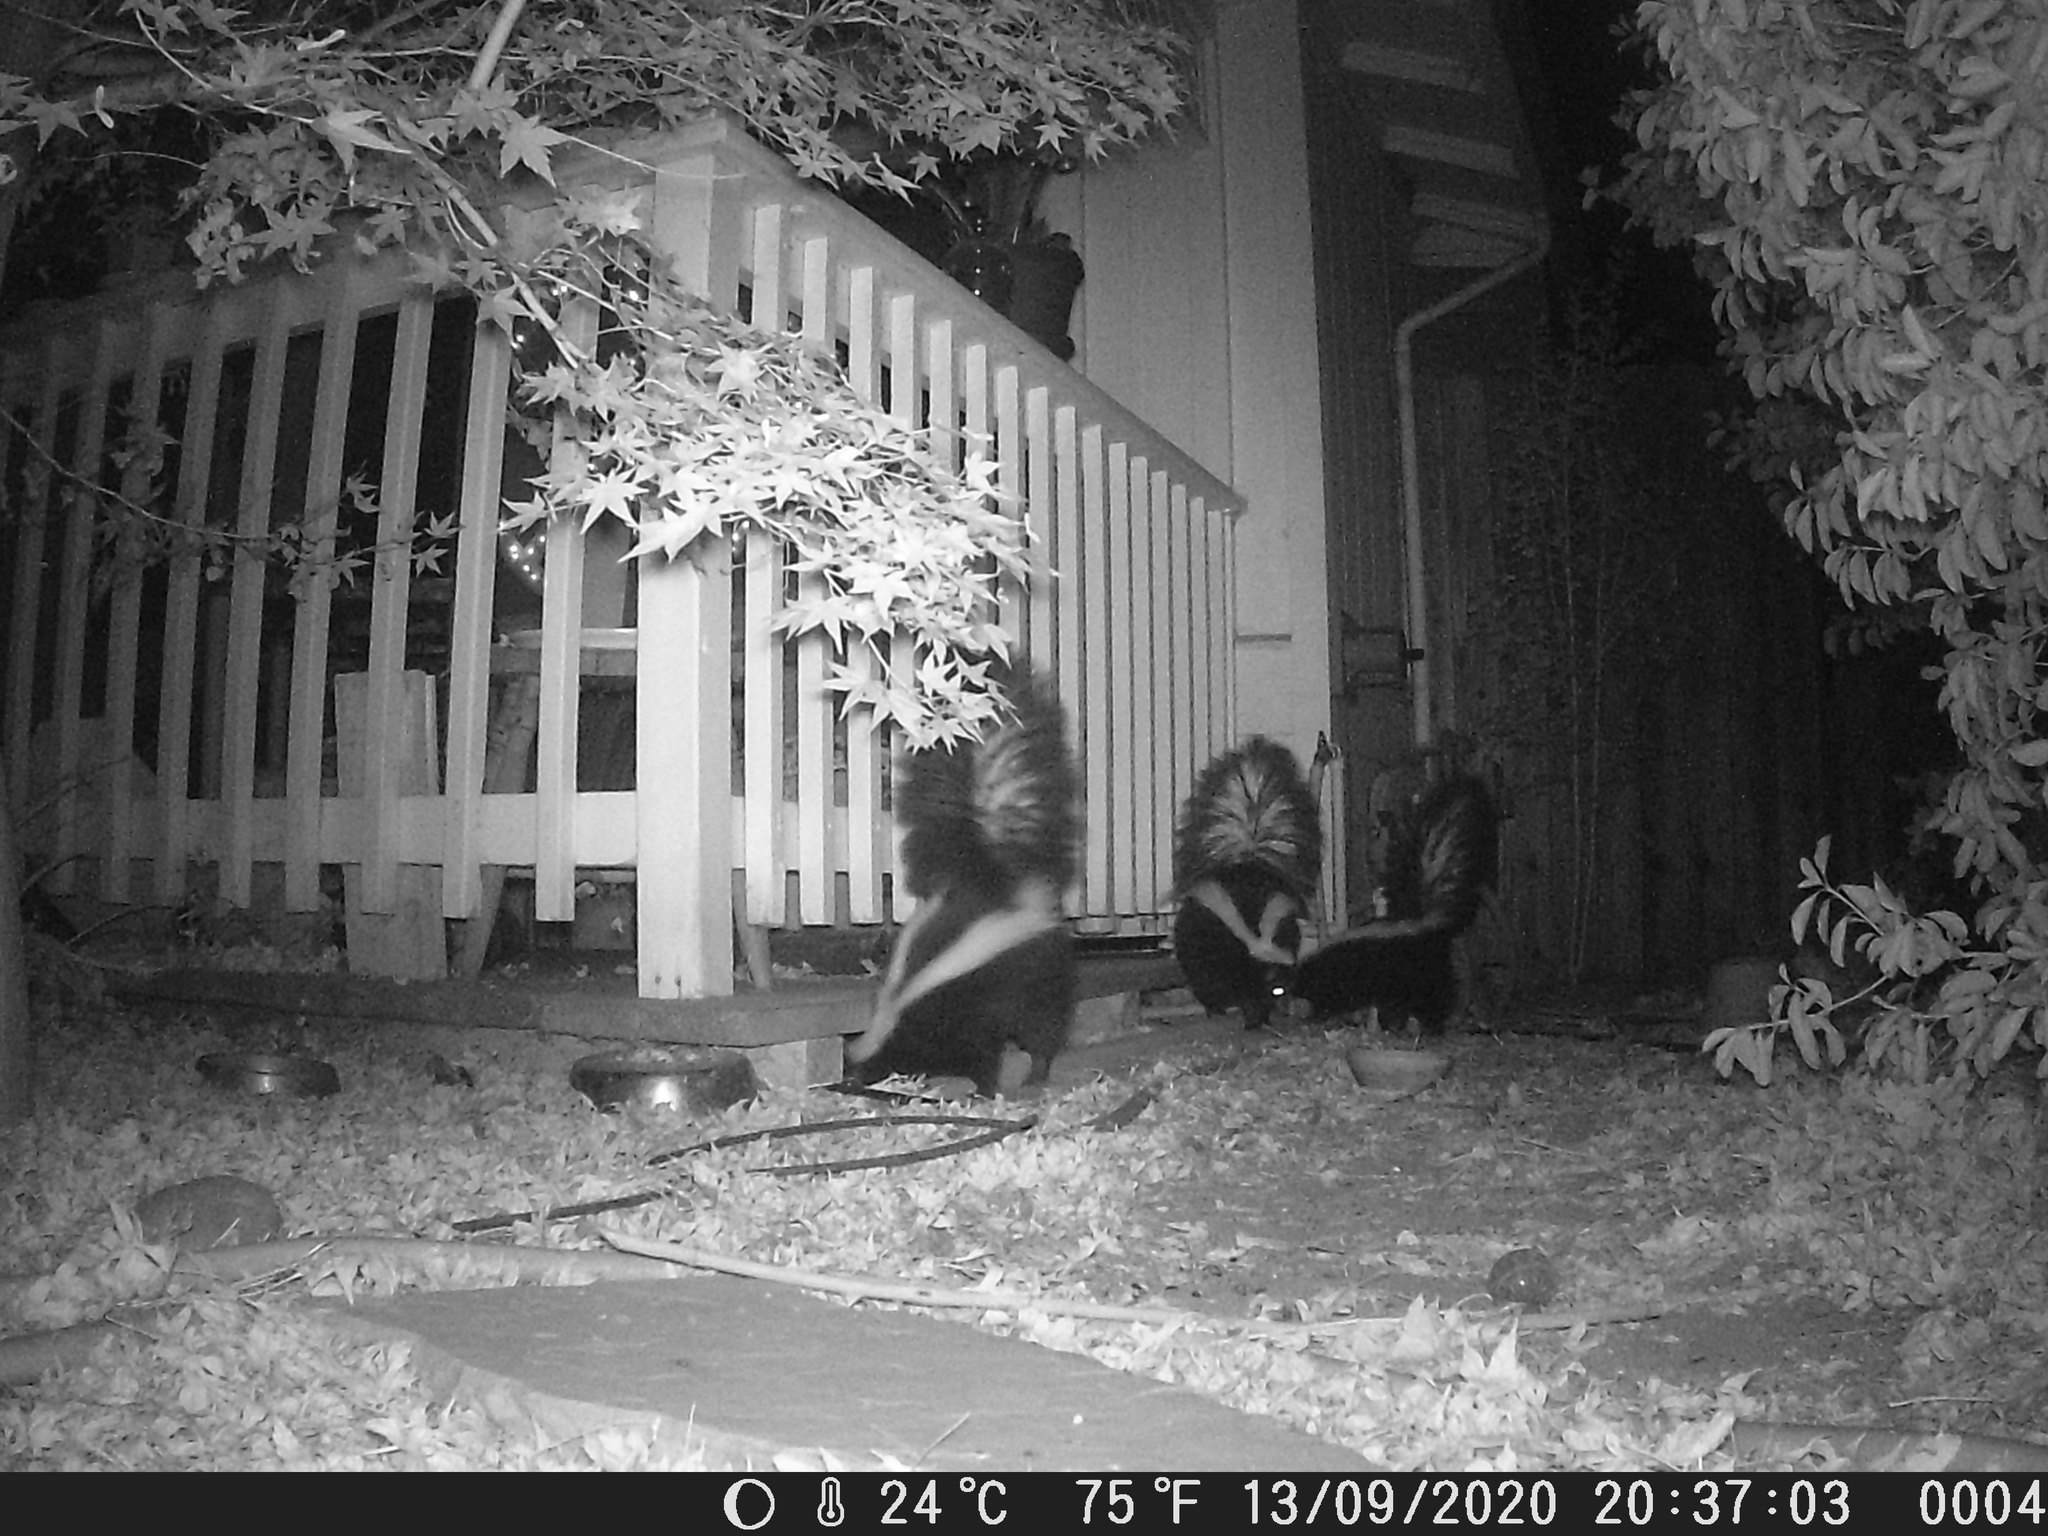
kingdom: Animalia
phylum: Chordata
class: Mammalia
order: Carnivora
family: Mephitidae
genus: Mephitis
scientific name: Mephitis mephitis
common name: Striped skunk
